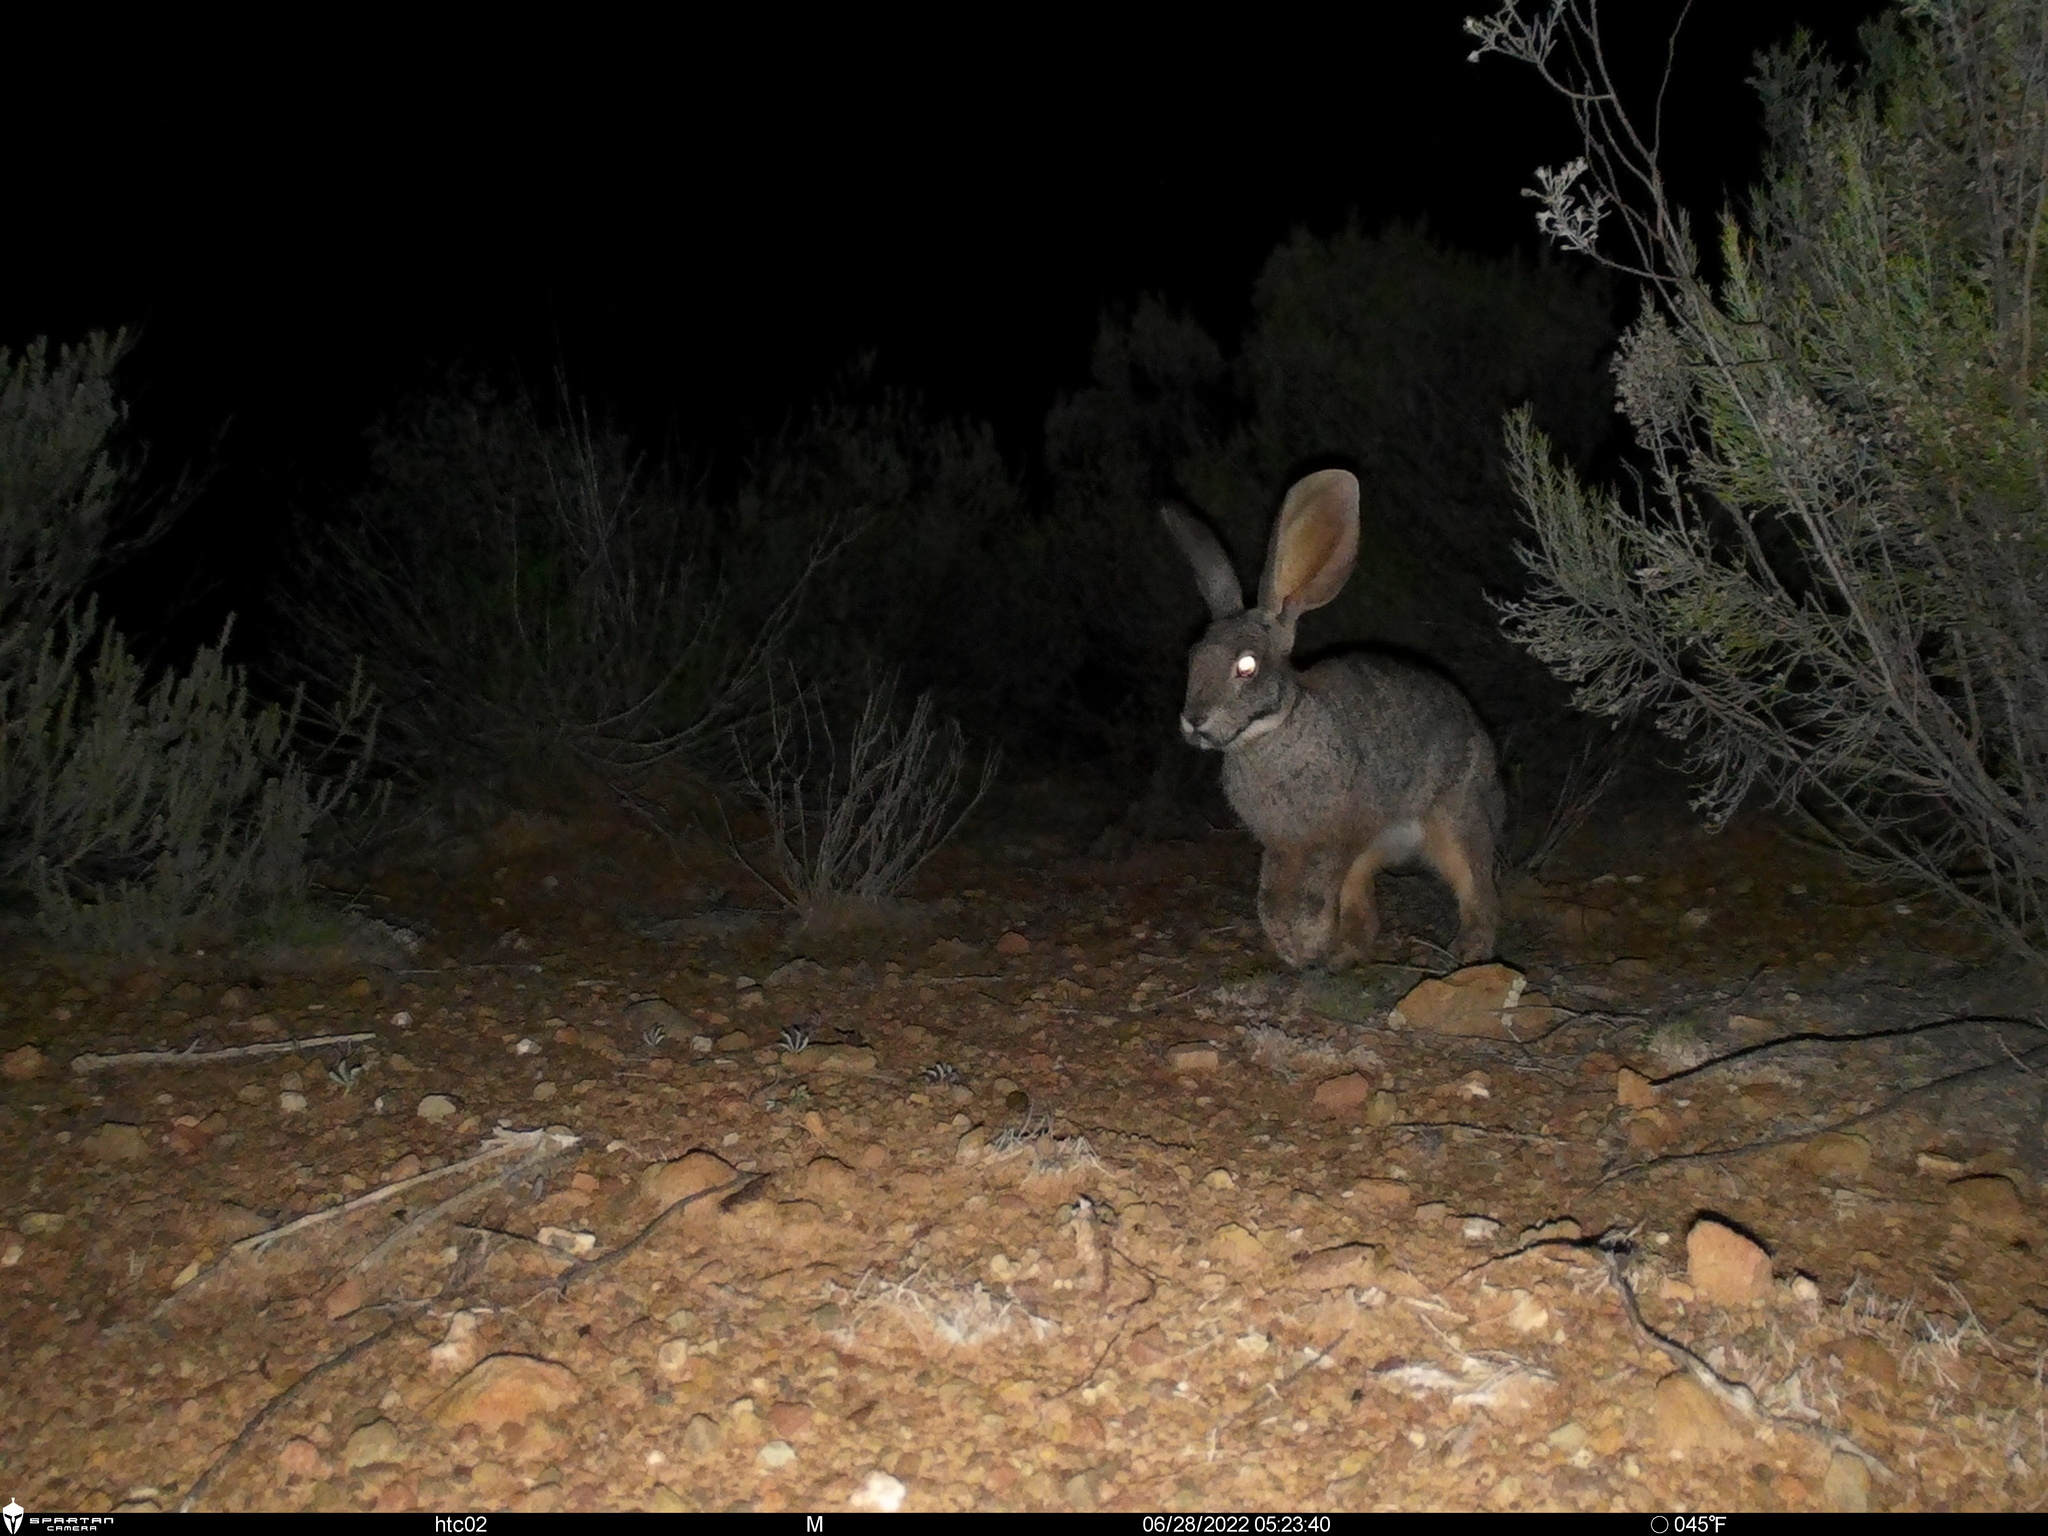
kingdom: Animalia
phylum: Chordata
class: Mammalia
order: Lagomorpha
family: Leporidae
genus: Bunolagus
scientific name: Bunolagus monticularis
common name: Riverine rabbit
